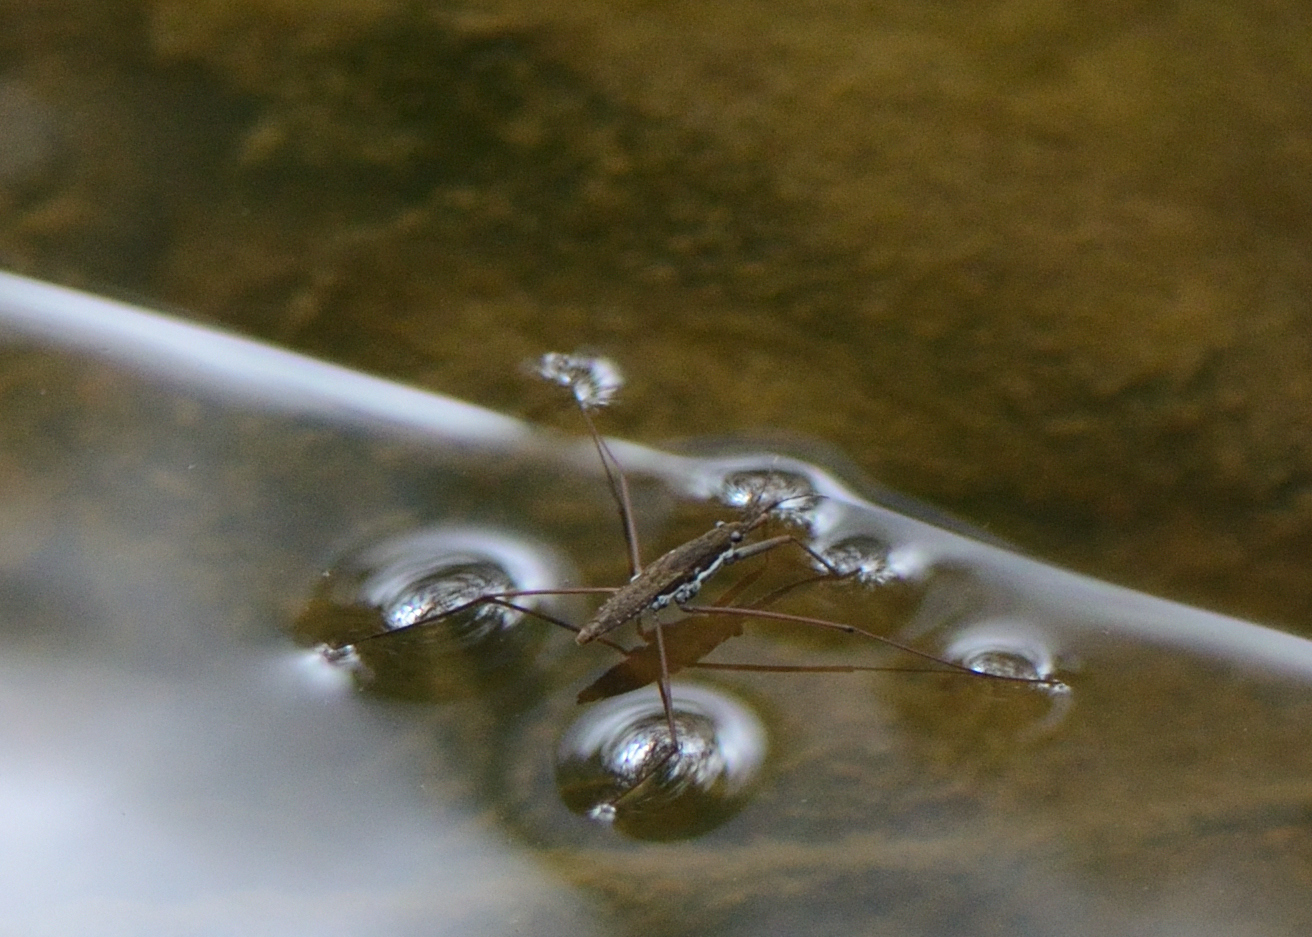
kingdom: Animalia
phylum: Arthropoda
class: Insecta
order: Hemiptera
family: Gerridae
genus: Aquarius
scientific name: Aquarius
